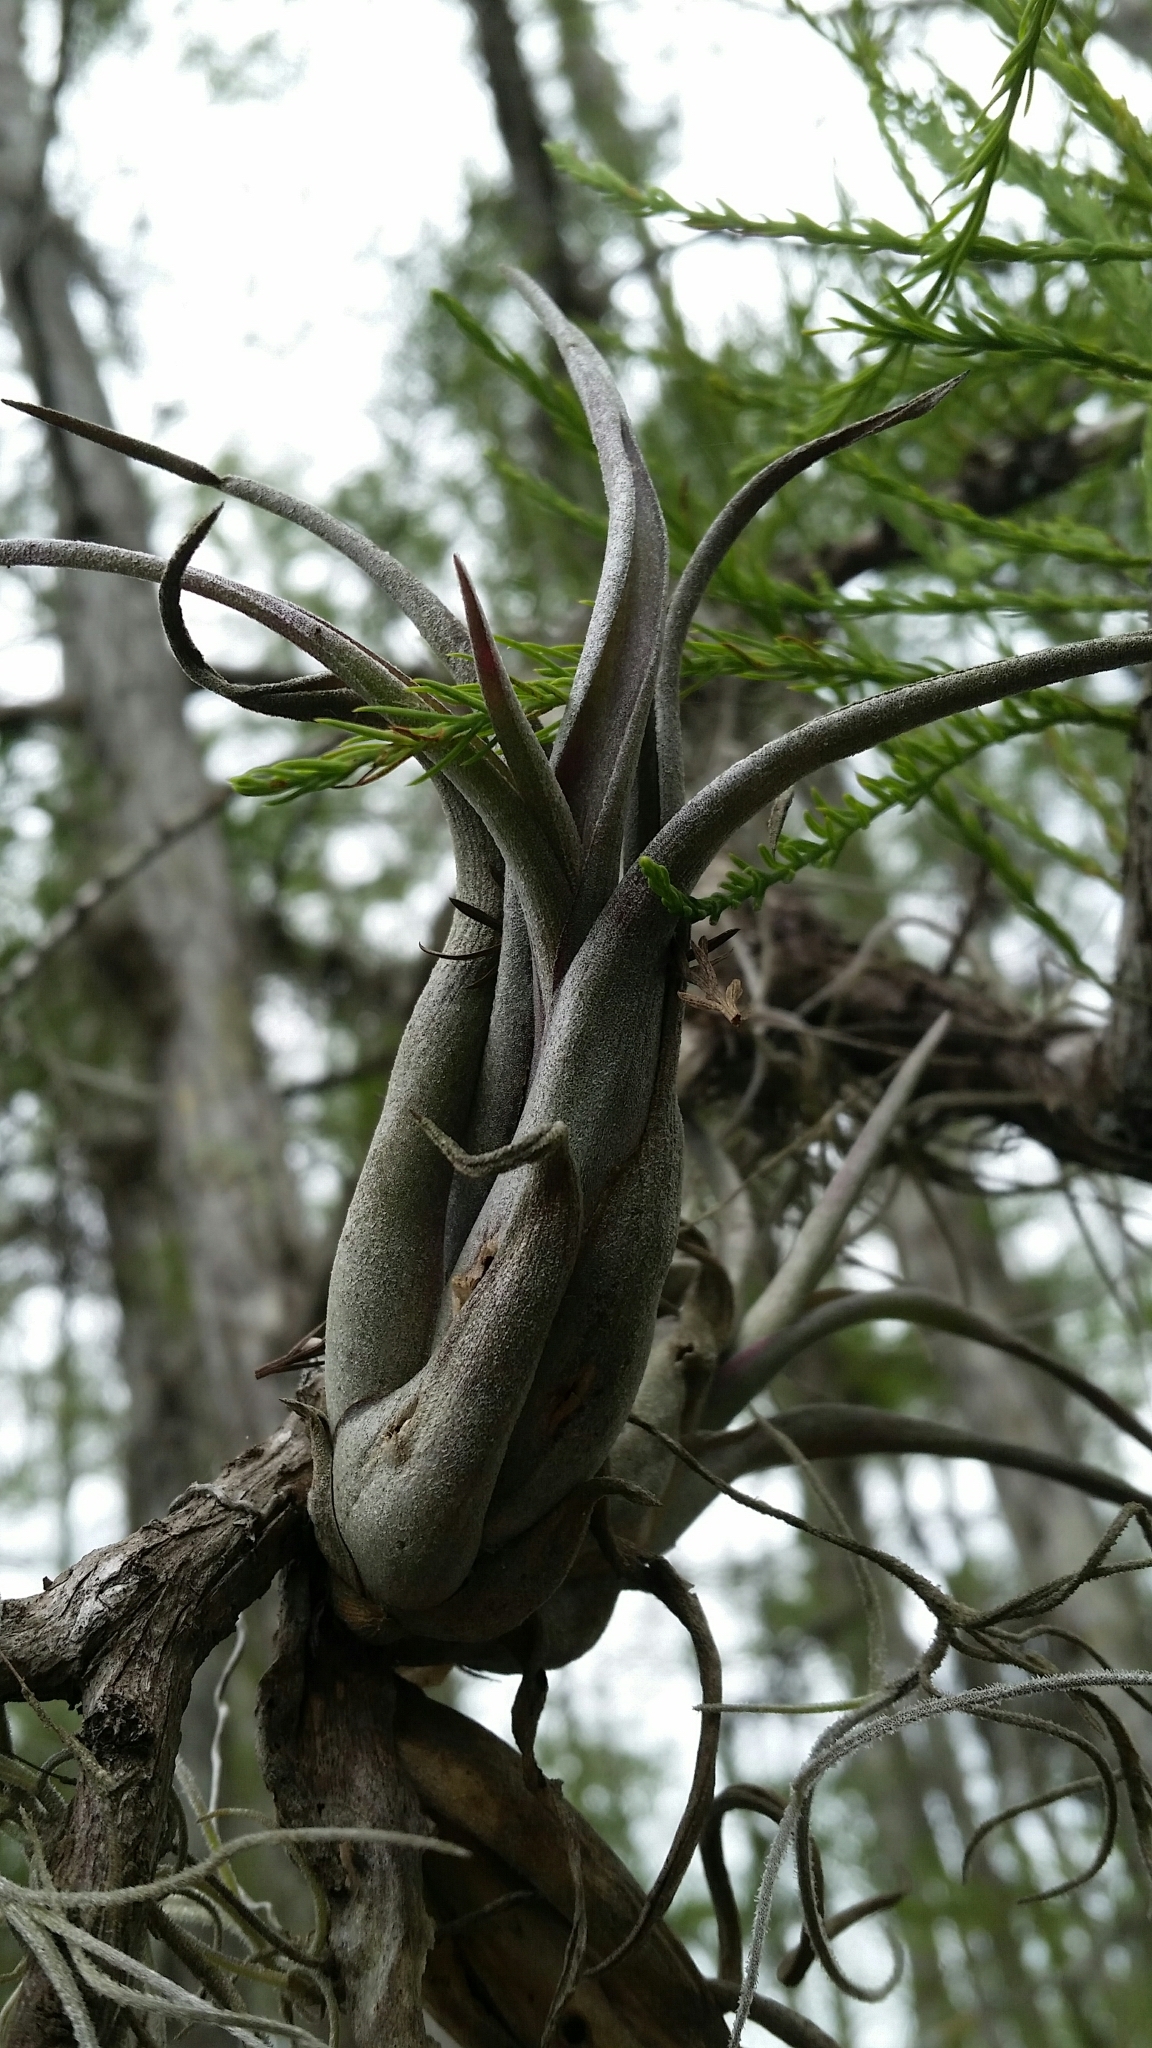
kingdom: Plantae
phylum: Tracheophyta
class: Liliopsida
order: Poales
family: Bromeliaceae
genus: Tillandsia
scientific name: Tillandsia paucifolia
